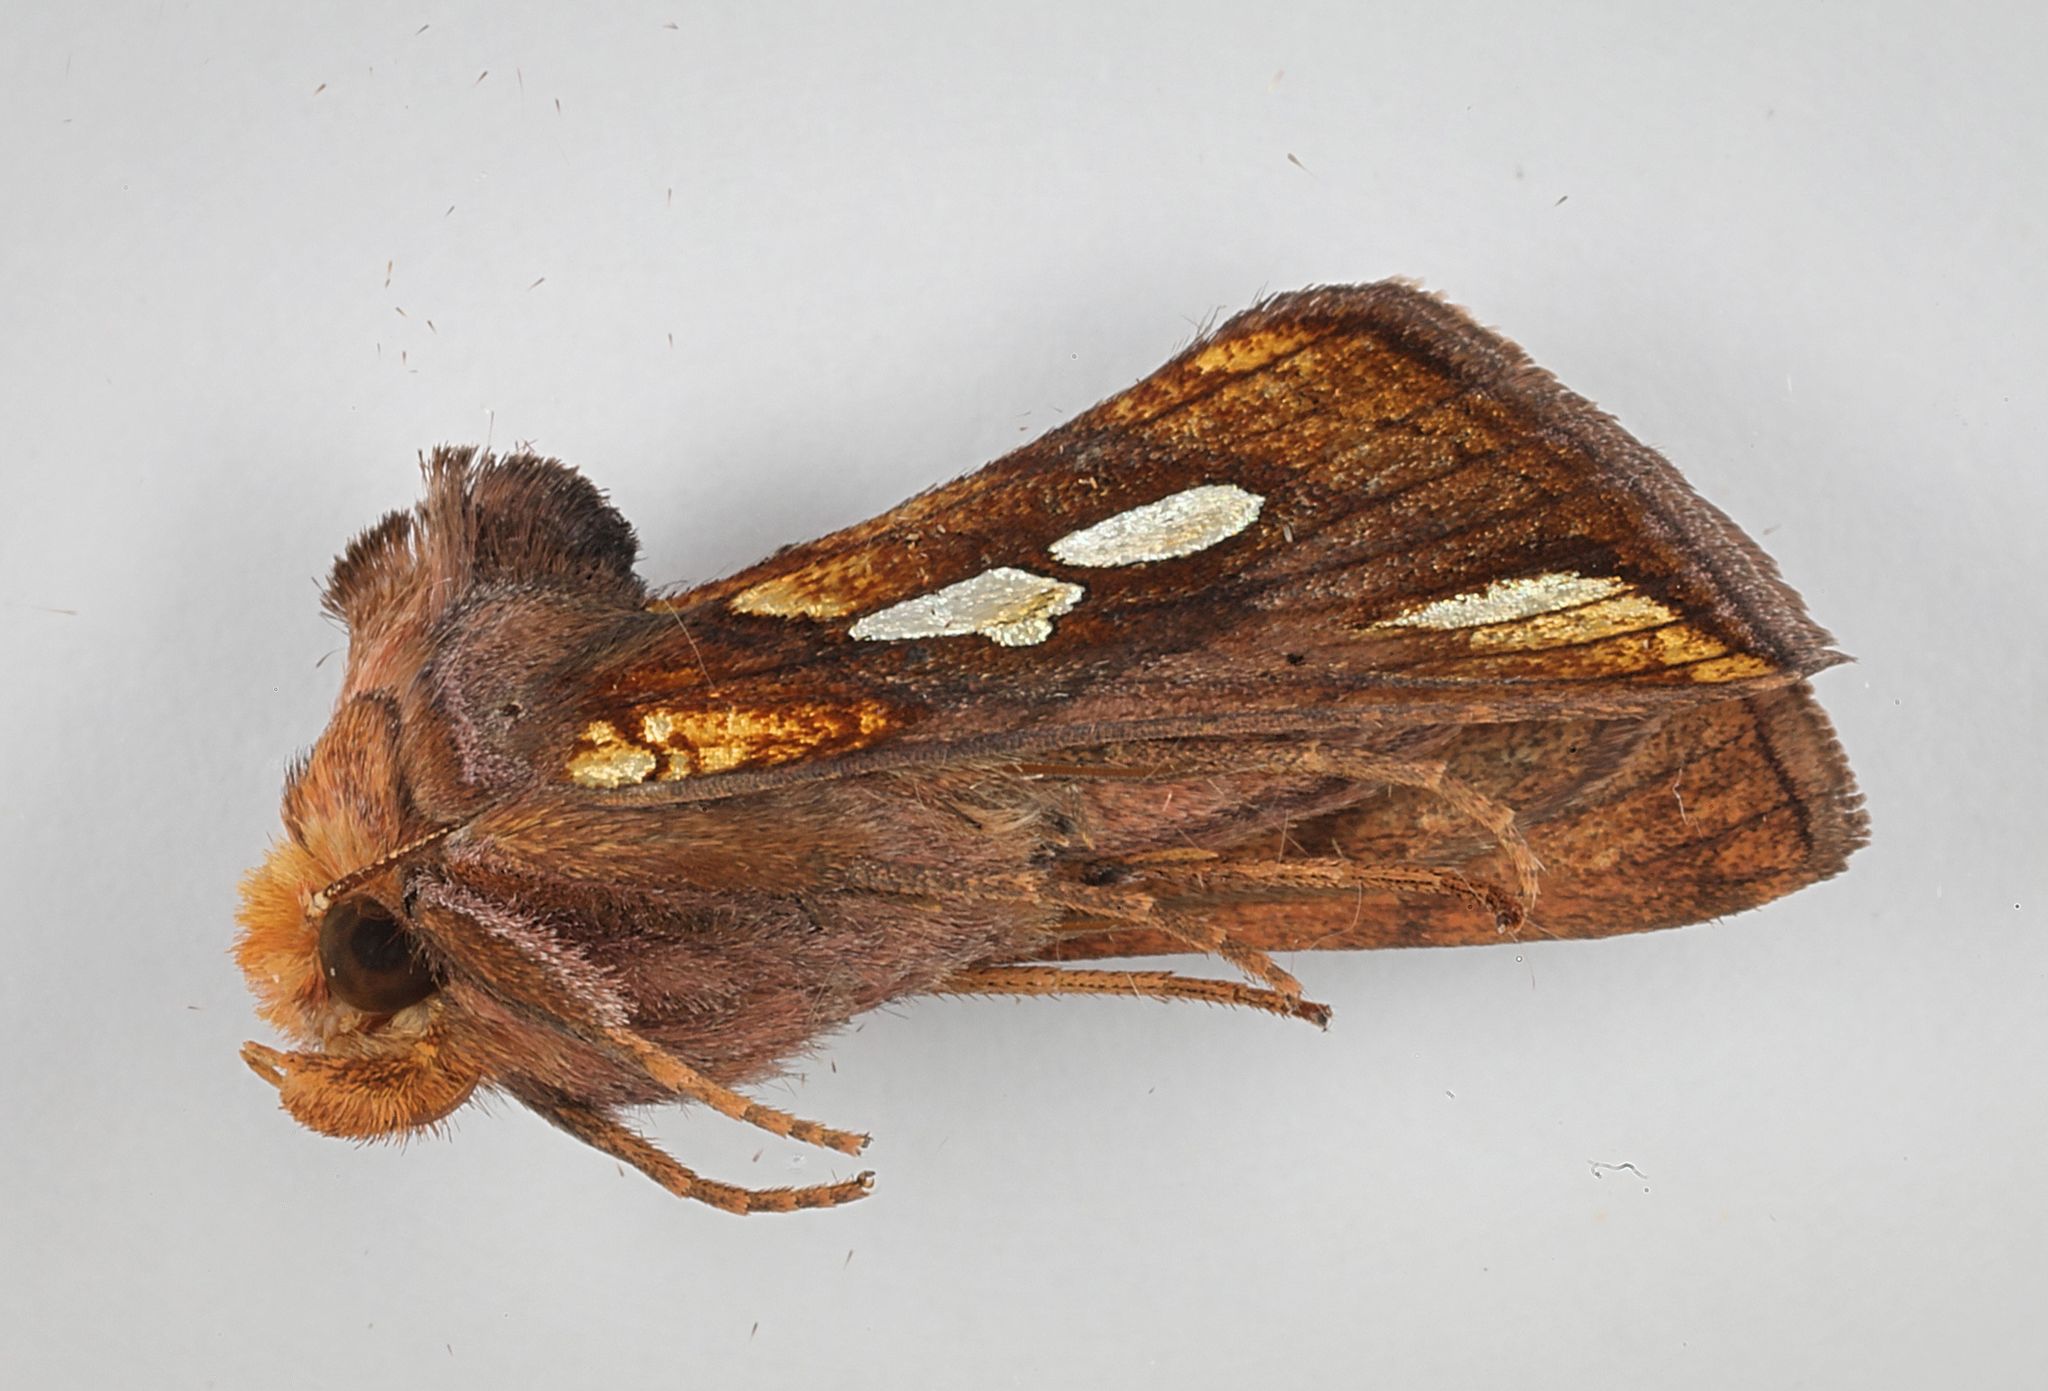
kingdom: Animalia
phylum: Arthropoda
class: Insecta
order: Lepidoptera
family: Noctuidae
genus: Plusia
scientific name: Plusia festucae
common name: Gold spot
